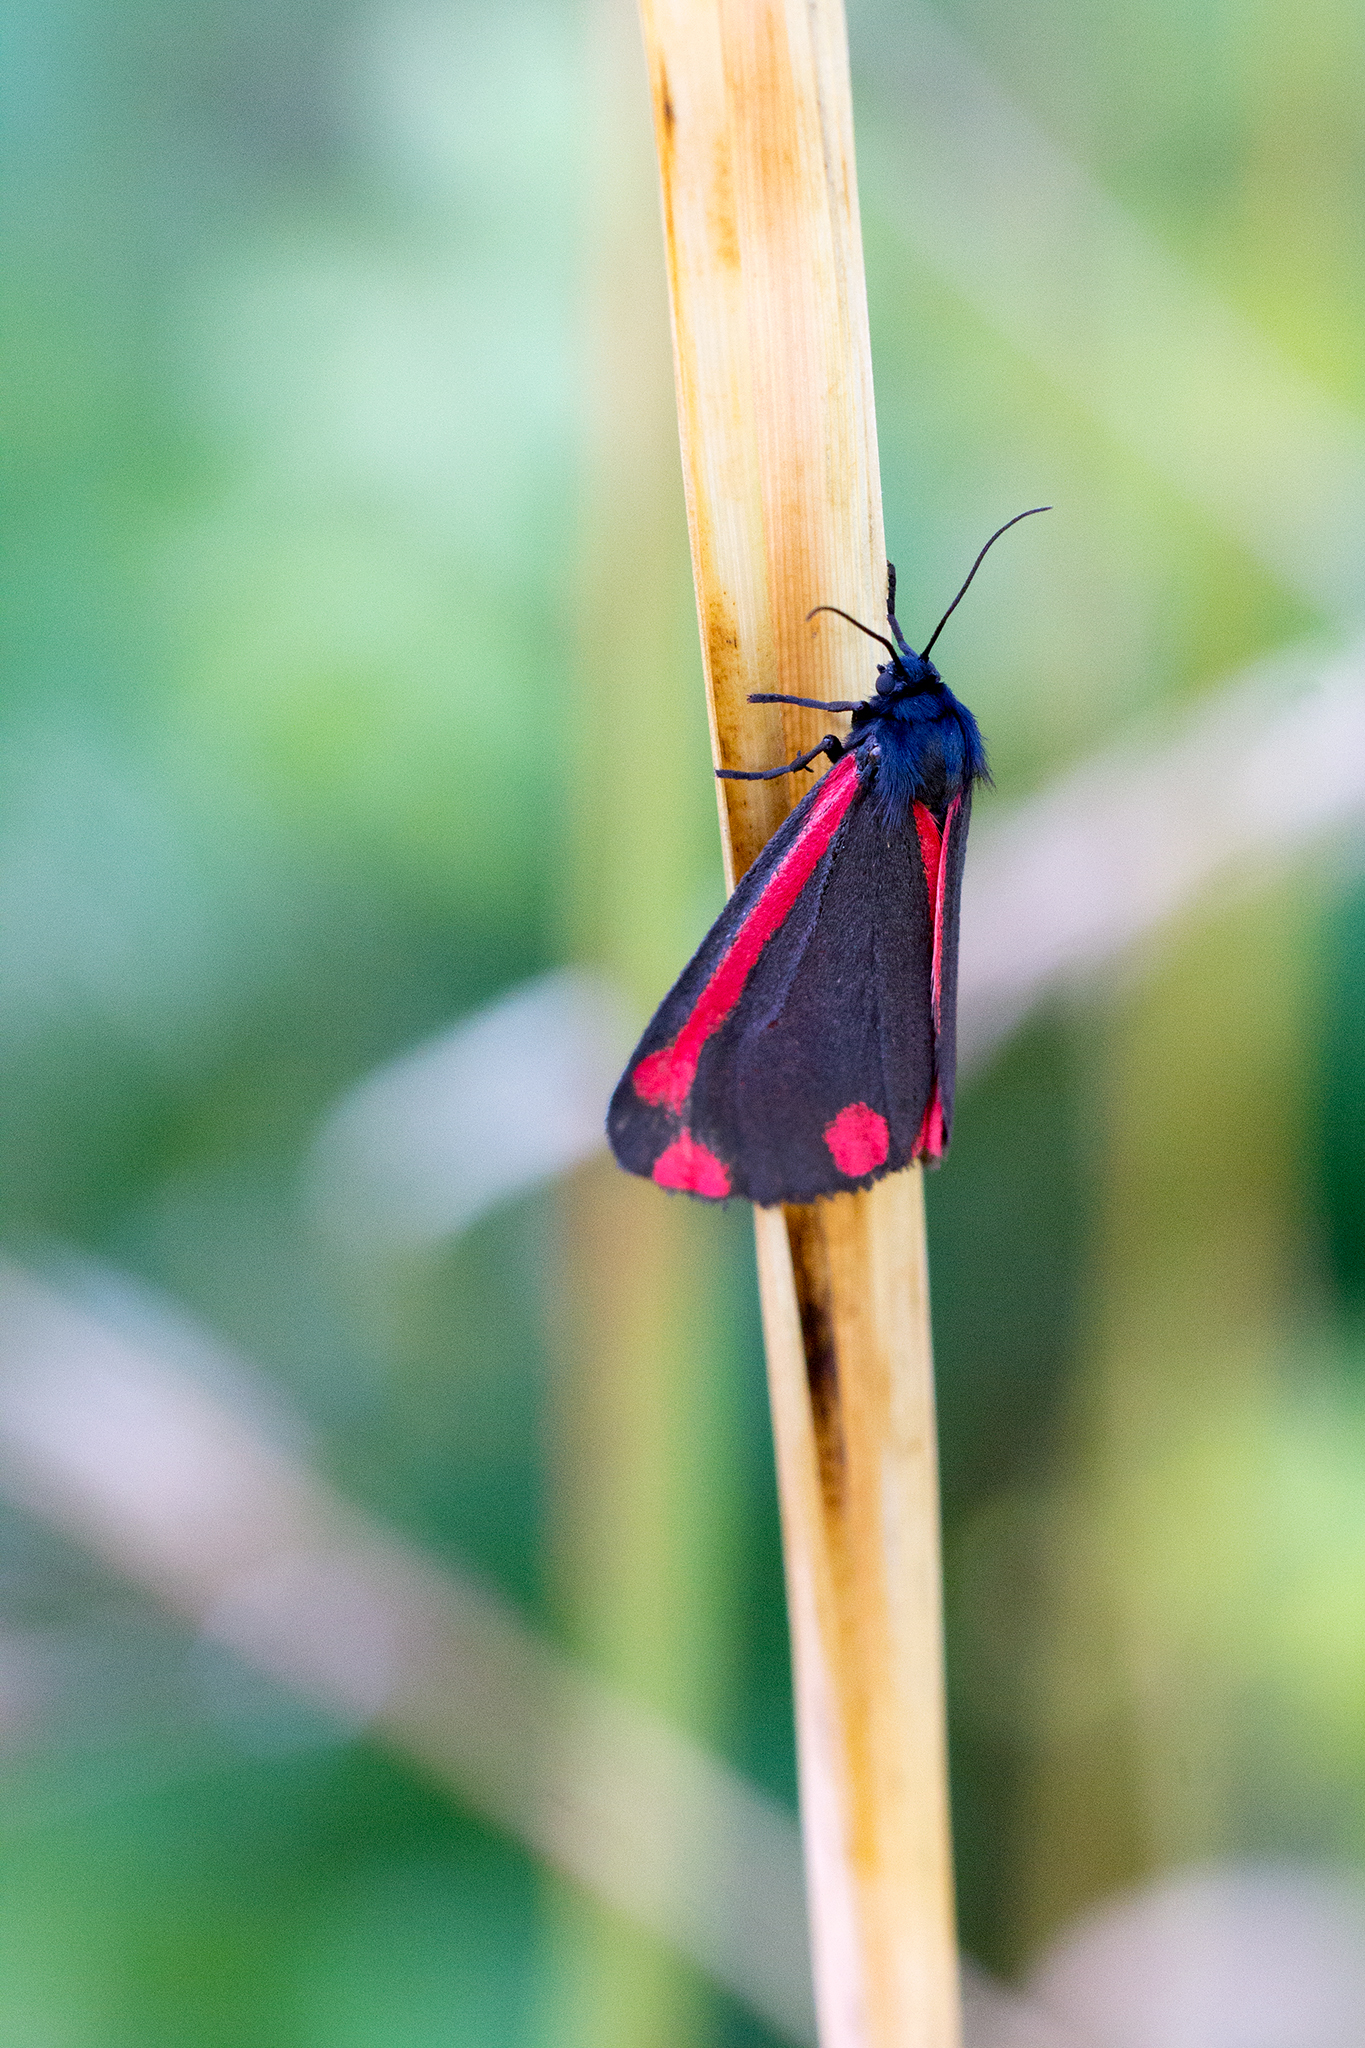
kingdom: Animalia
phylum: Arthropoda
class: Insecta
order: Lepidoptera
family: Erebidae
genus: Tyria
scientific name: Tyria jacobaeae
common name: Cinnabar
